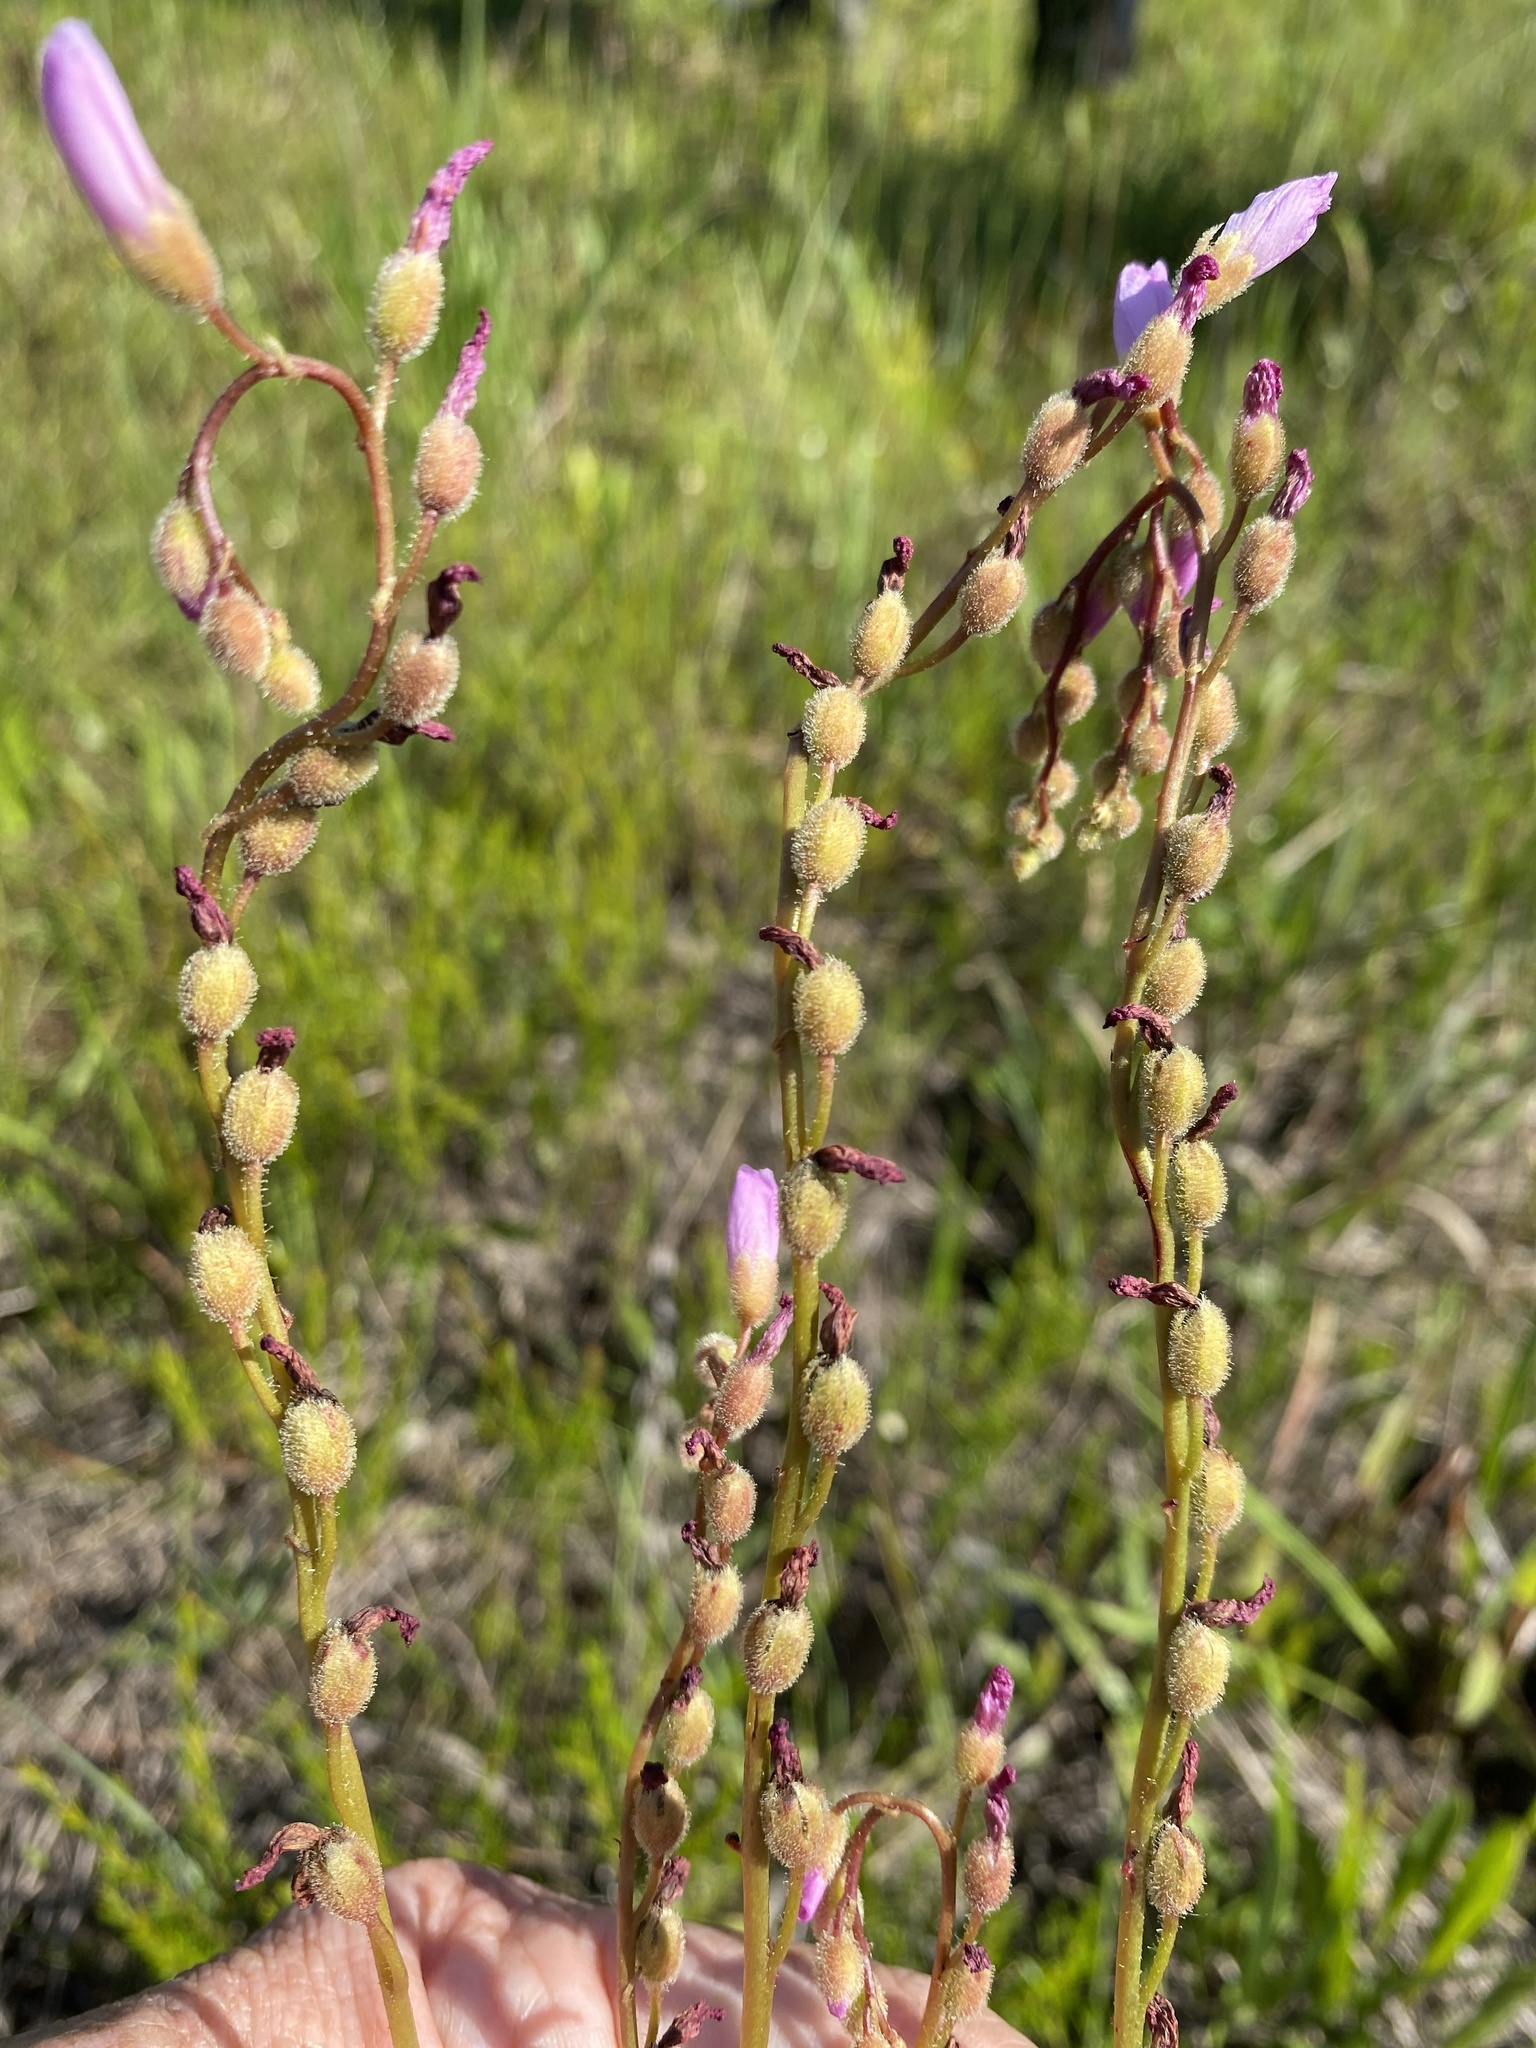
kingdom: Plantae
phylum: Tracheophyta
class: Magnoliopsida
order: Caryophyllales
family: Droseraceae
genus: Drosera
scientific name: Drosera filiformis
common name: Dew-thread
